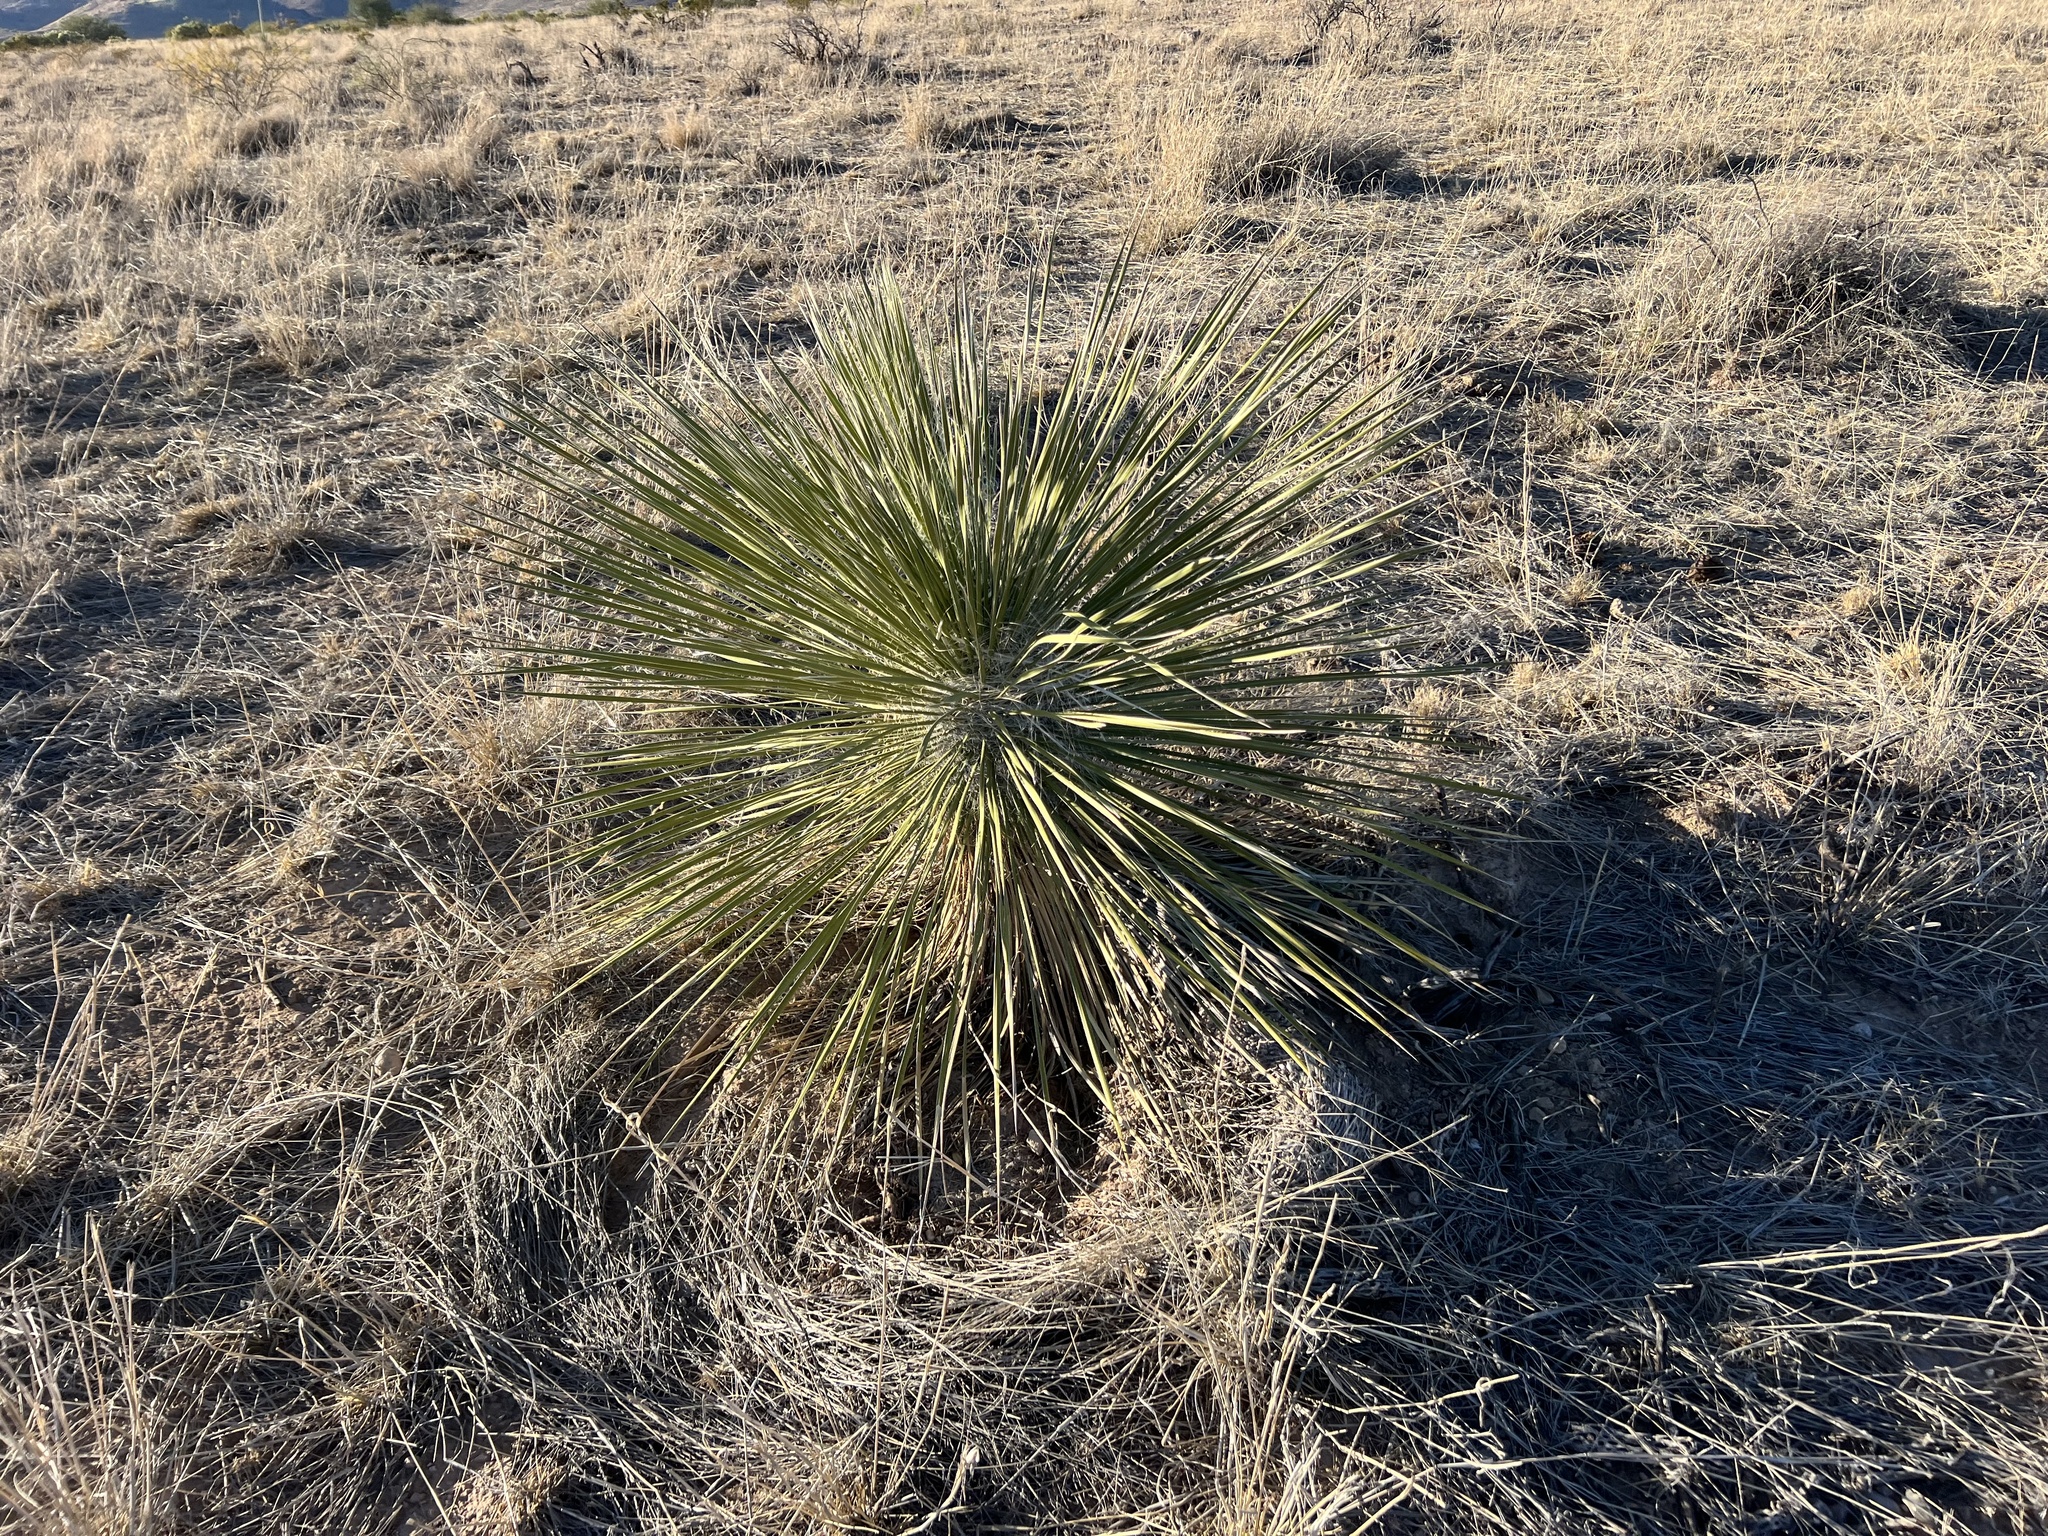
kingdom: Plantae
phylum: Tracheophyta
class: Liliopsida
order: Asparagales
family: Asparagaceae
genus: Yucca
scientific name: Yucca elata
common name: Palmella
